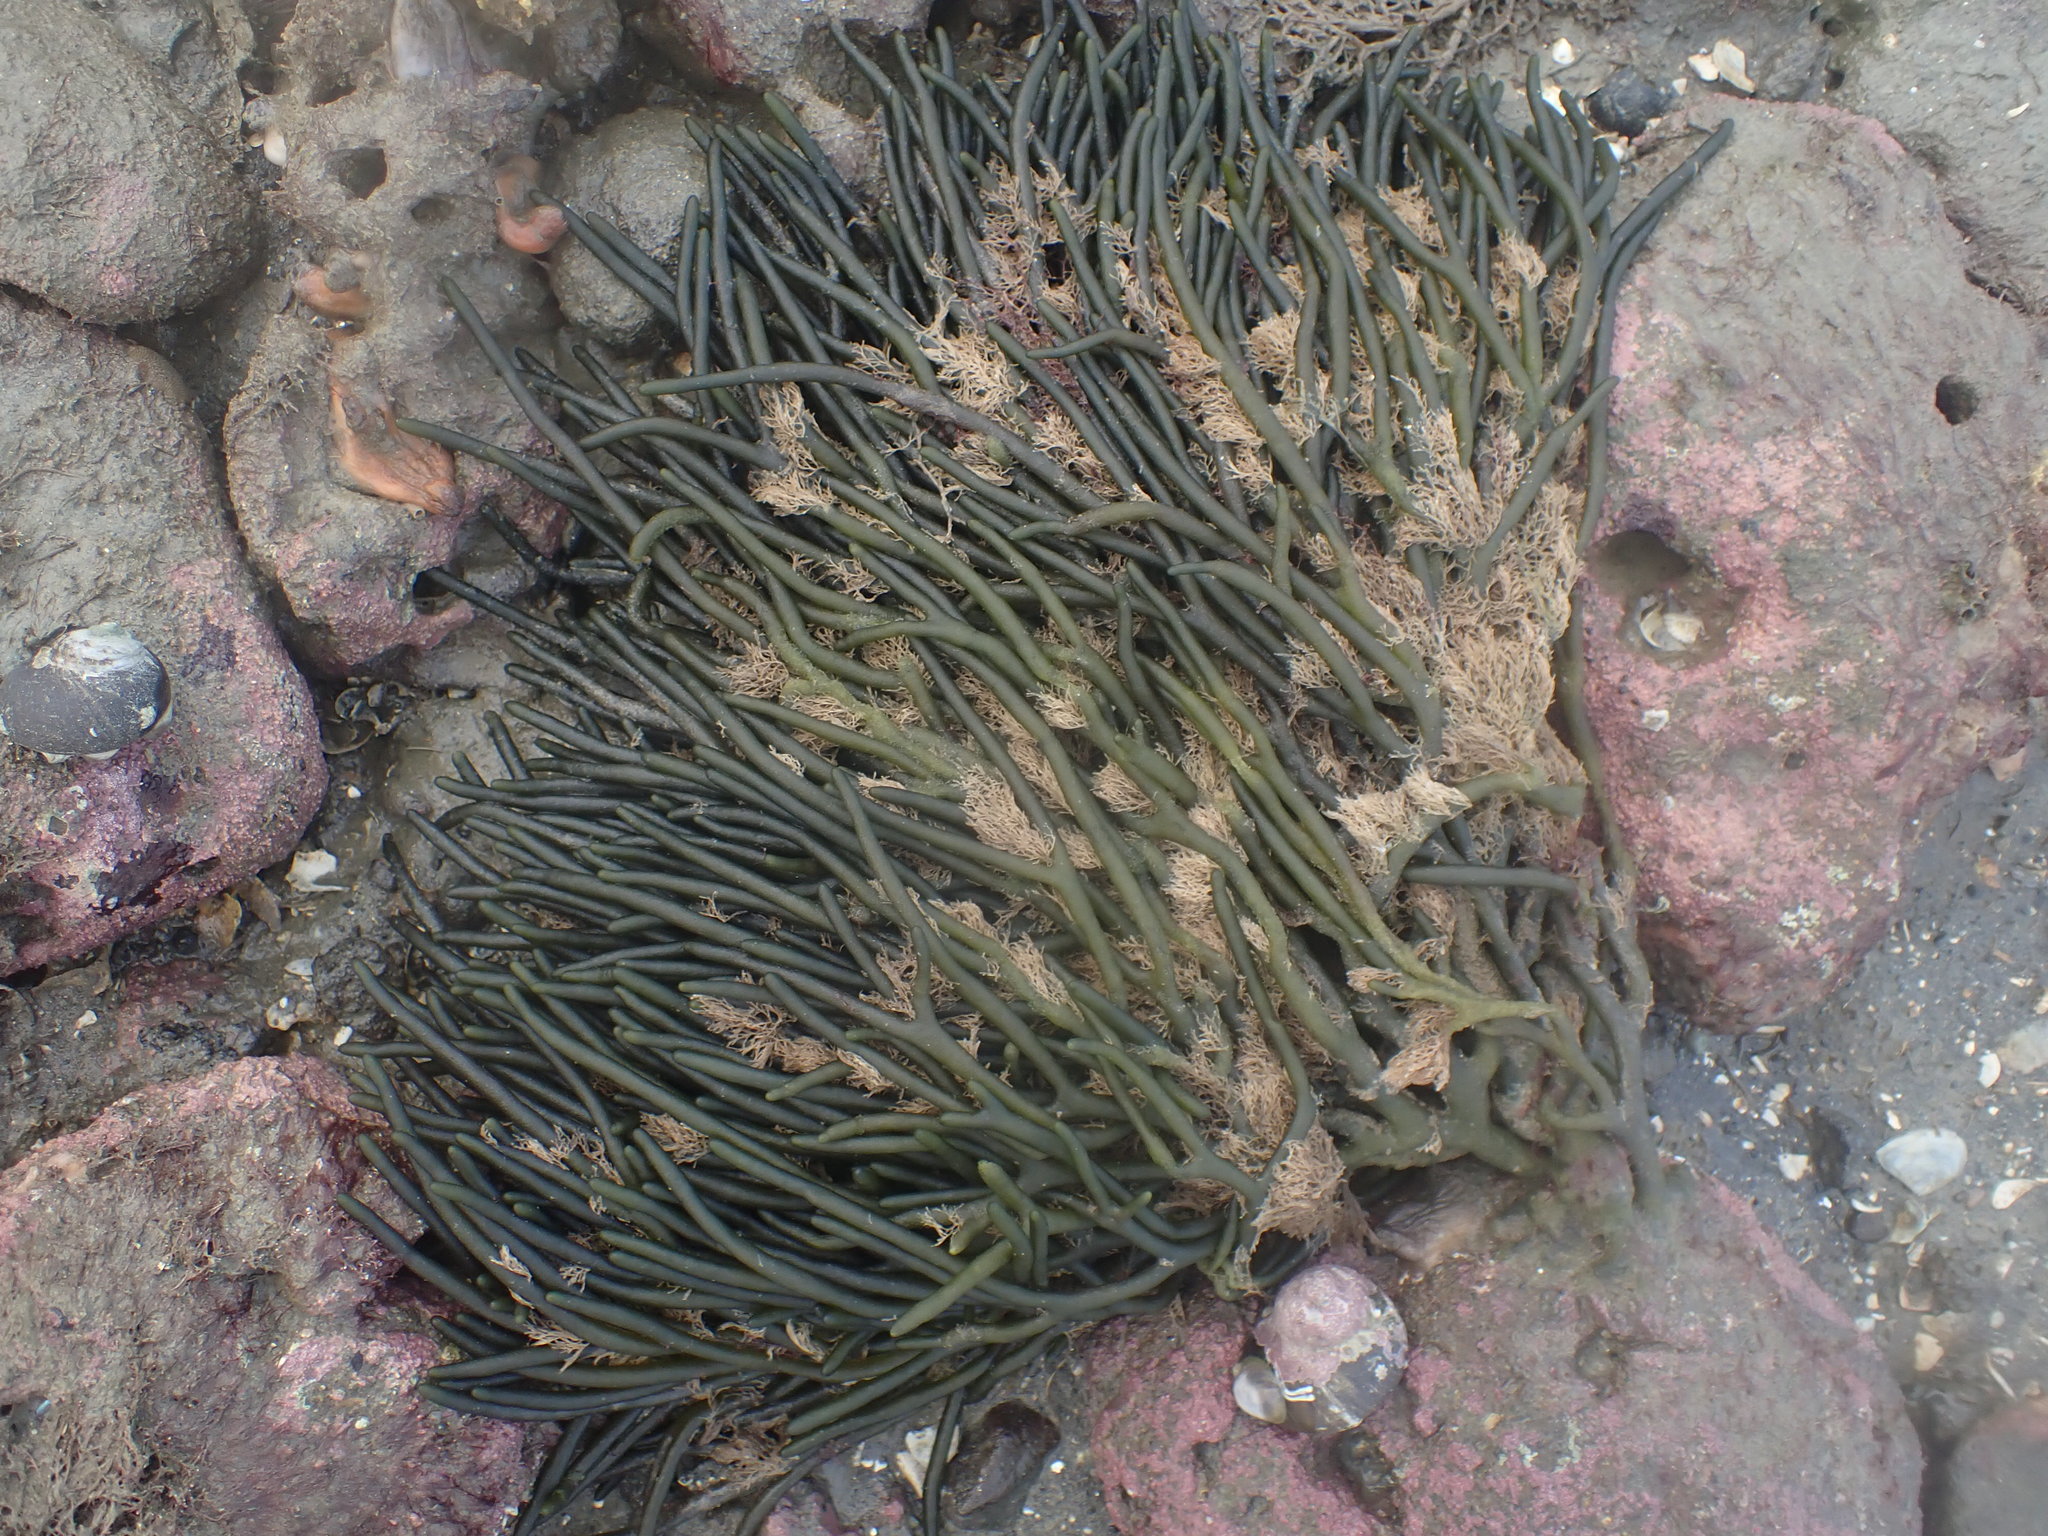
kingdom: Plantae
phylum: Chlorophyta
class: Ulvophyceae
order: Bryopsidales
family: Codiaceae
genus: Codium
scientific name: Codium fragile
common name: Dead man's fingers
